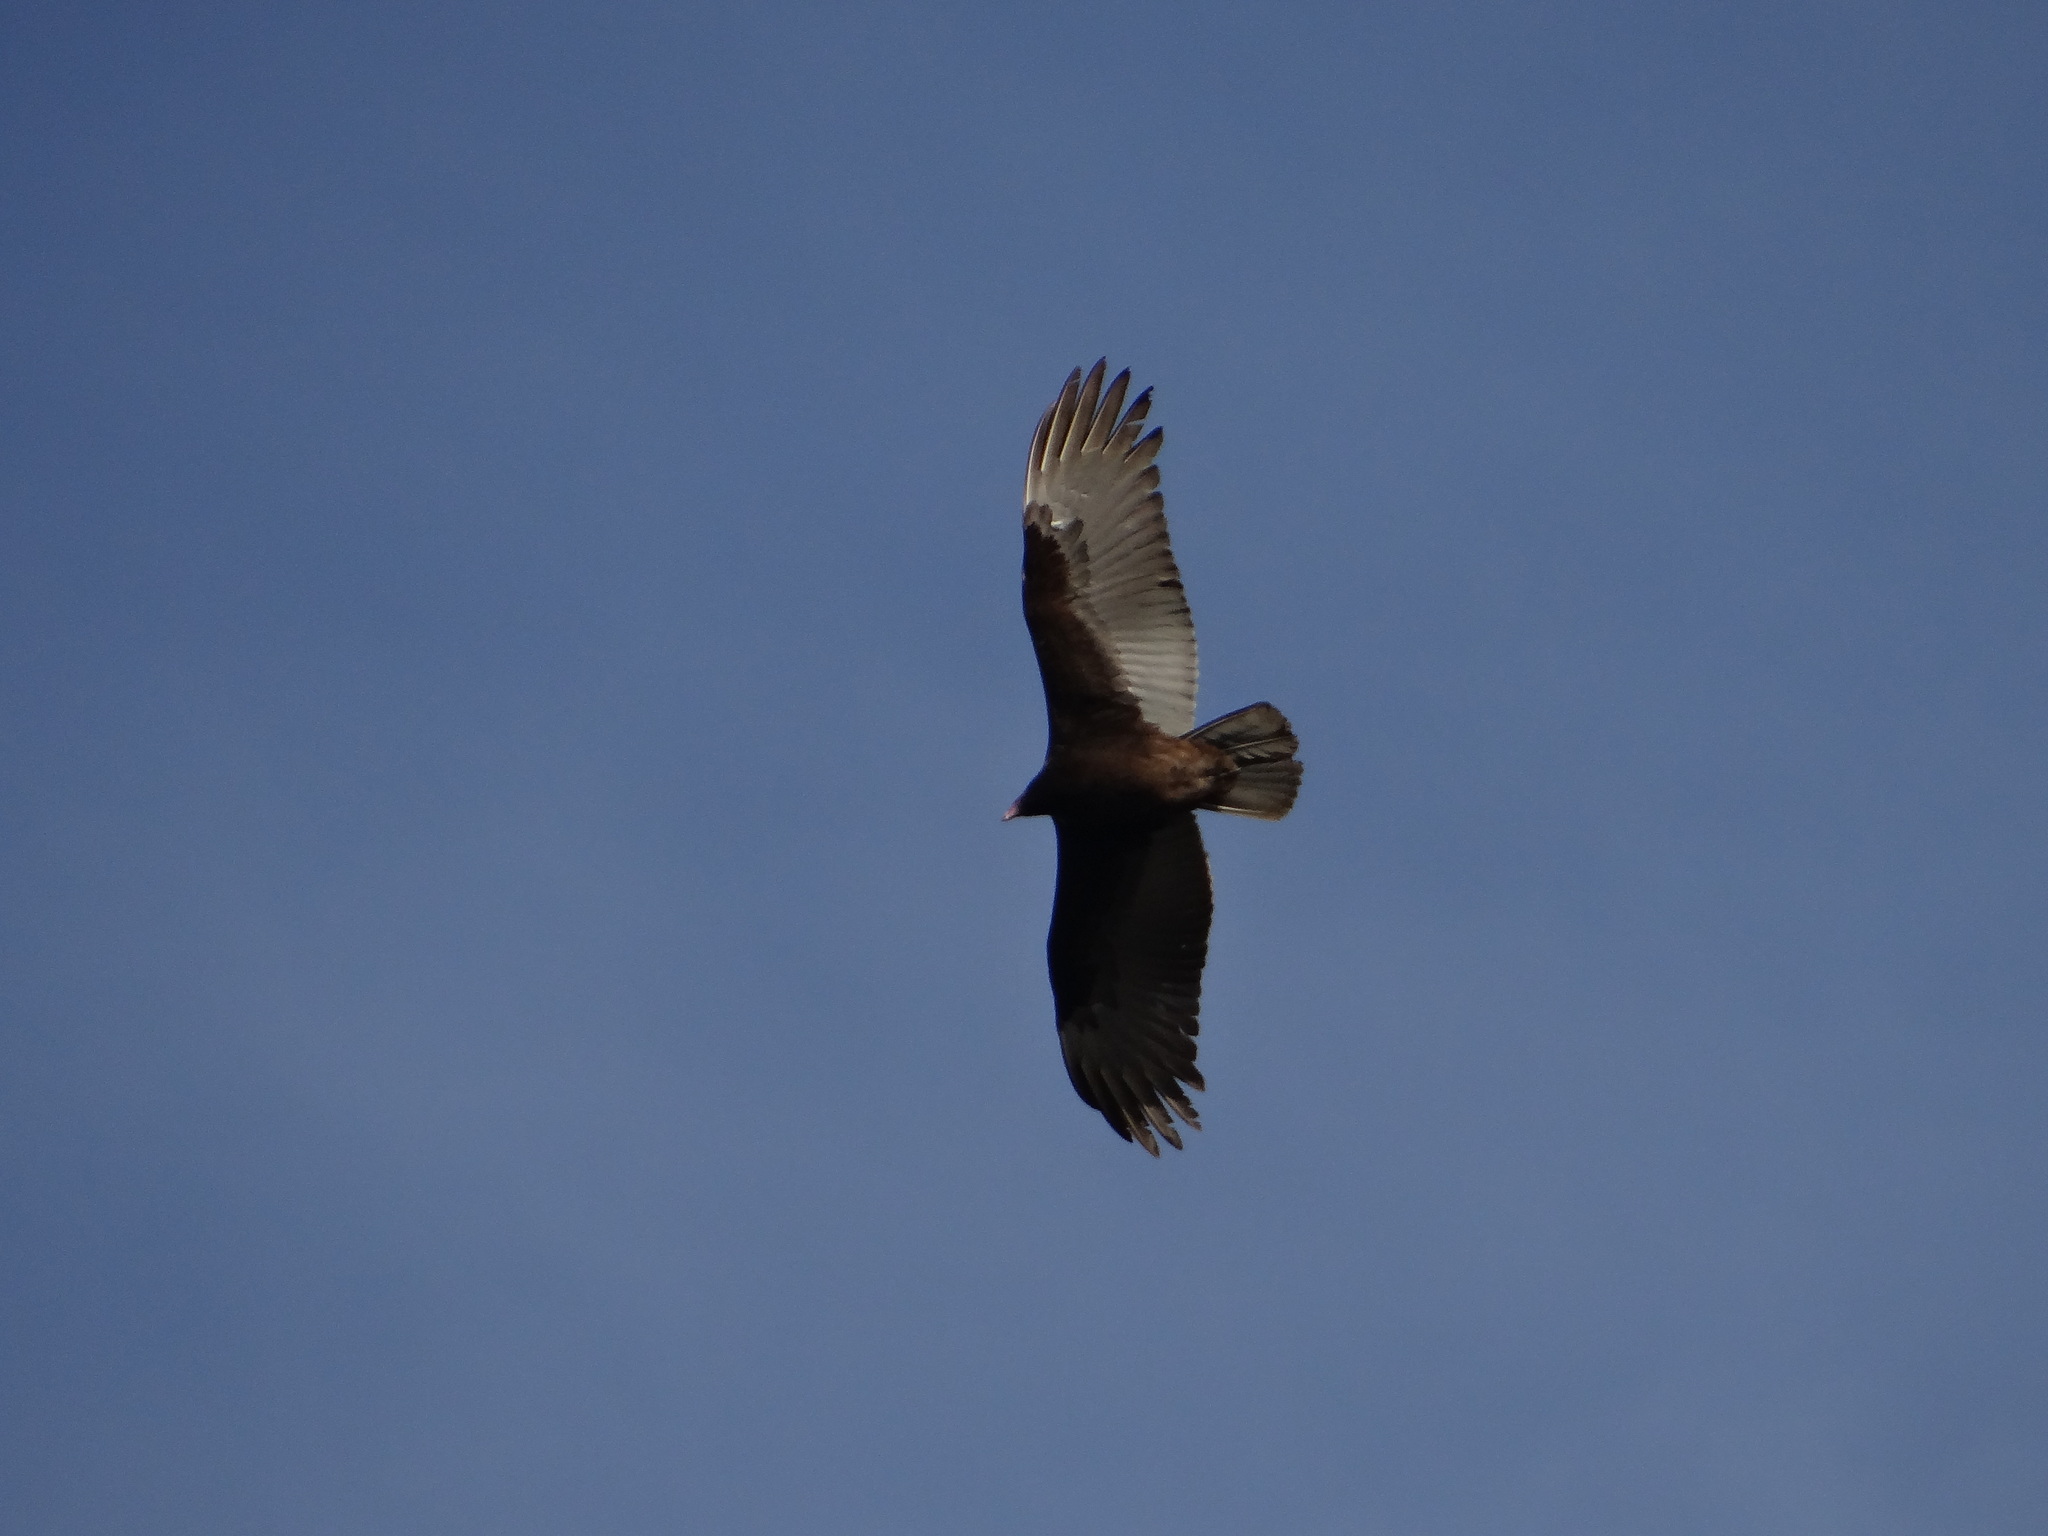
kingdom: Animalia
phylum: Chordata
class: Aves
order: Accipitriformes
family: Cathartidae
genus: Cathartes
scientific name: Cathartes aura
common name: Turkey vulture
